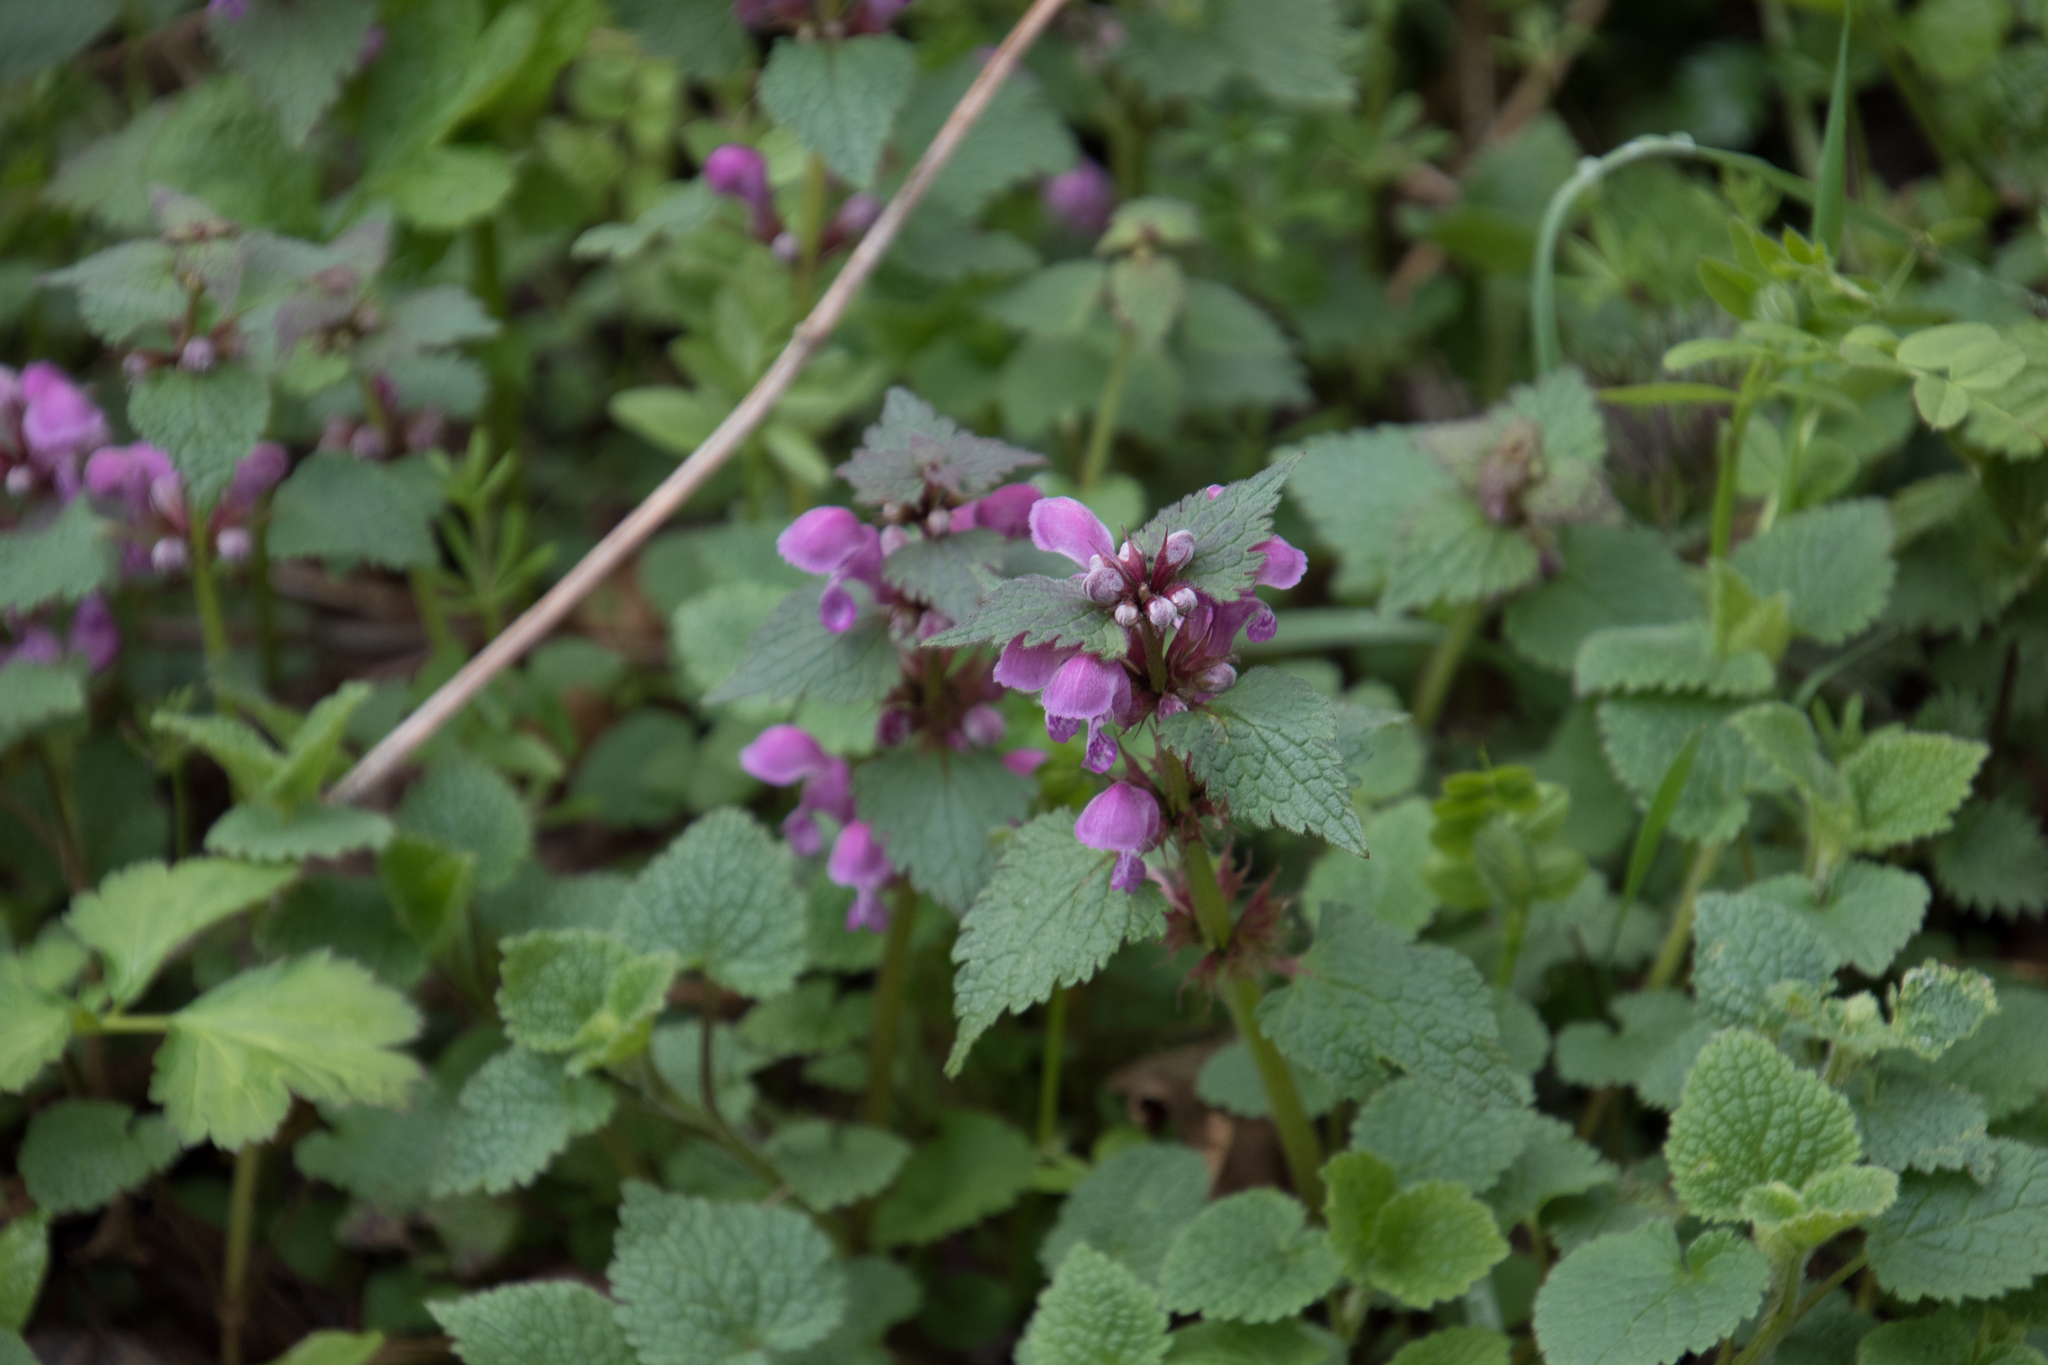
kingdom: Plantae
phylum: Tracheophyta
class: Magnoliopsida
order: Lamiales
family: Lamiaceae
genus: Lamium
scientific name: Lamium maculatum
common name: Spotted dead-nettle
